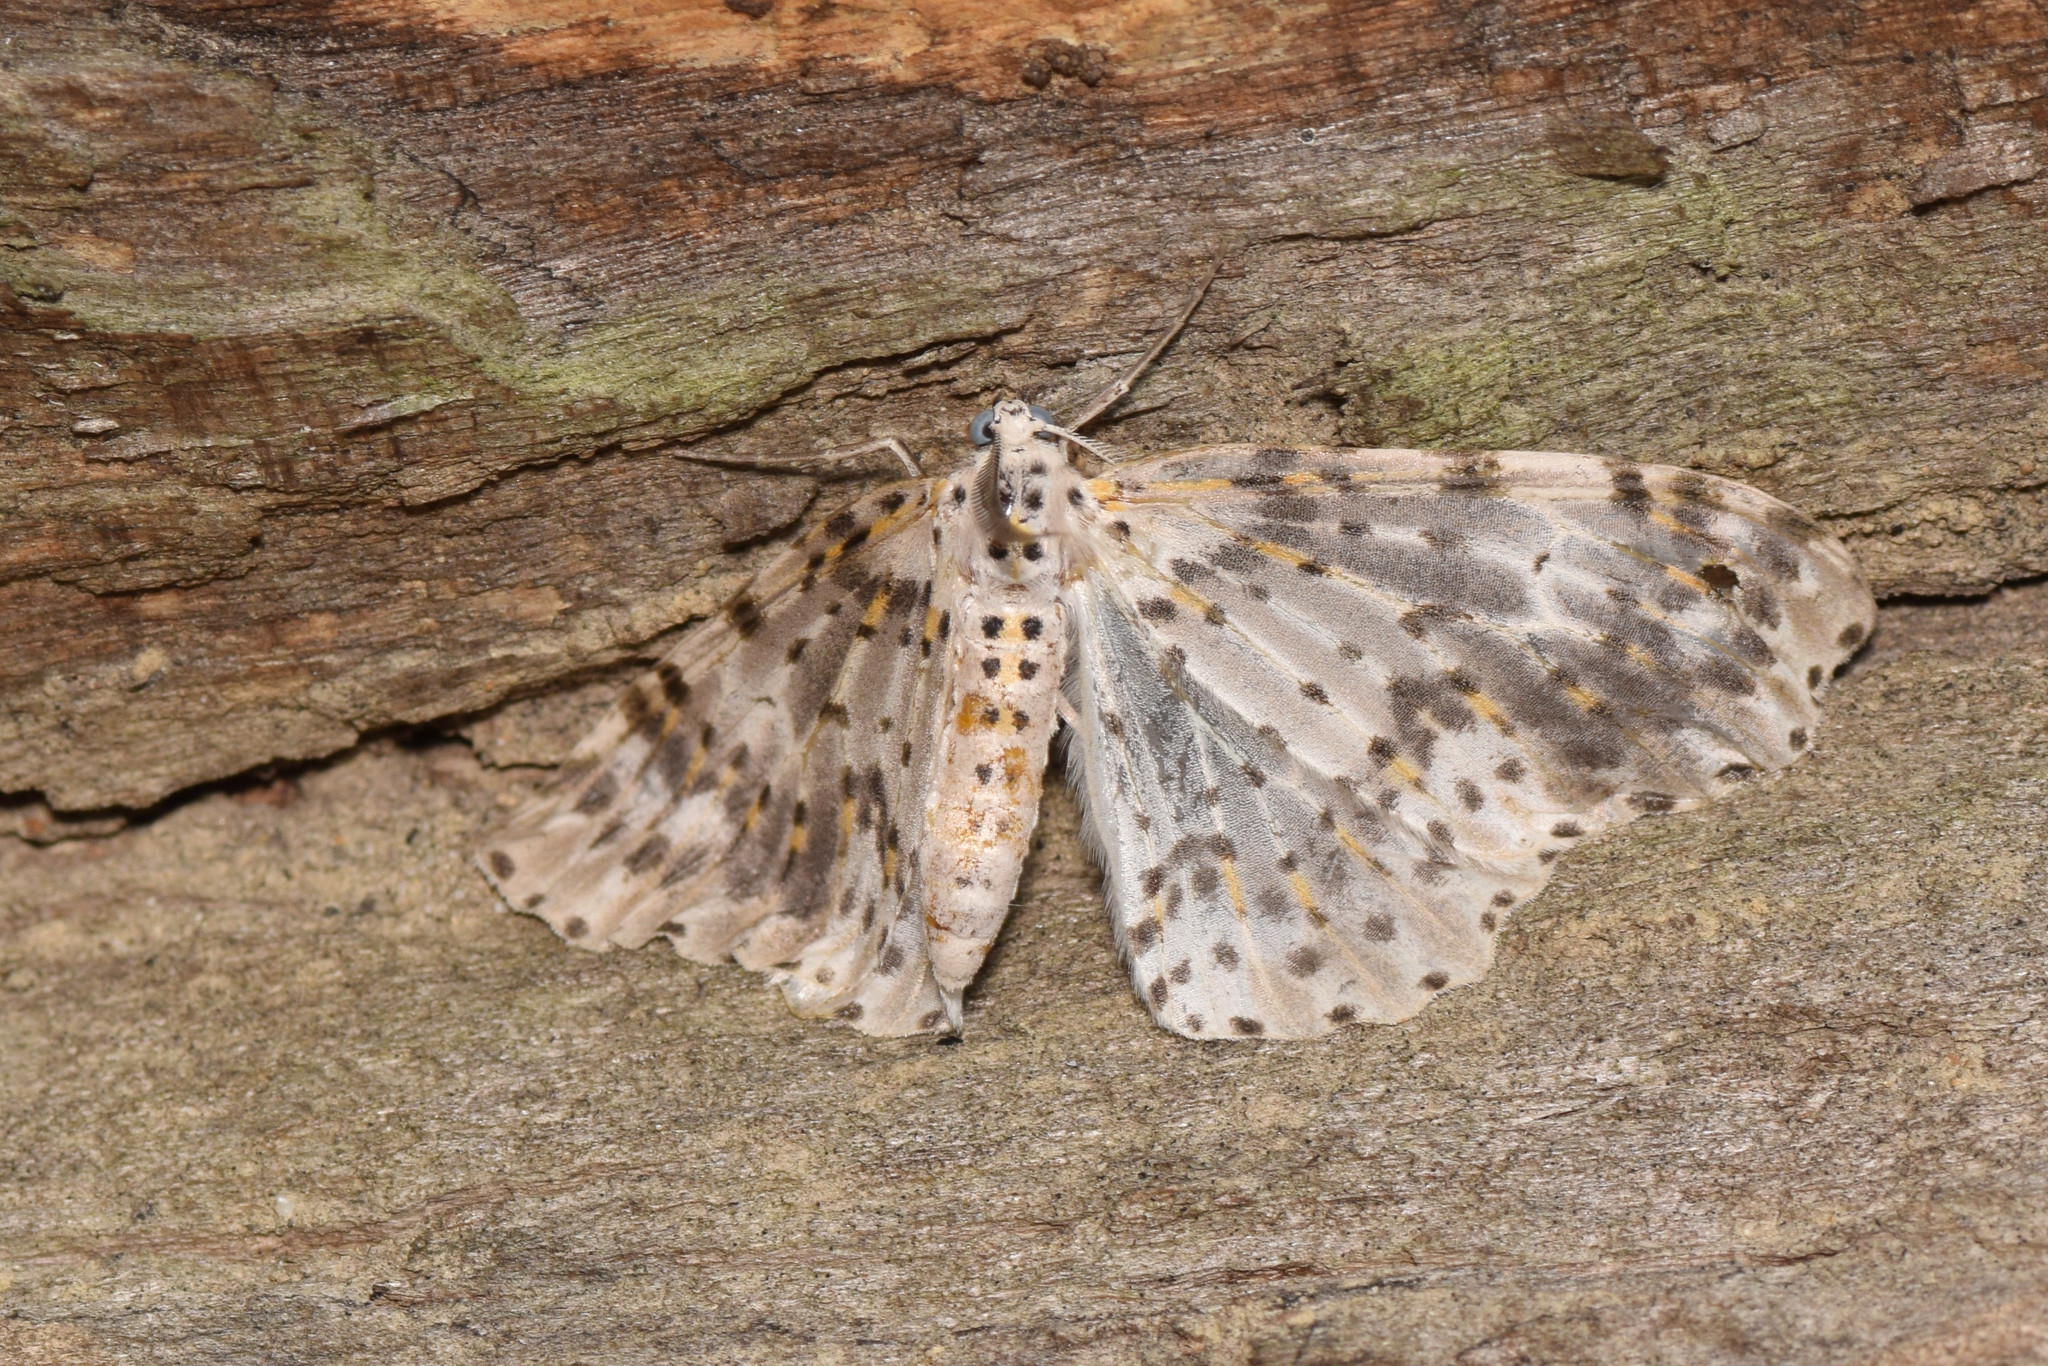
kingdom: Animalia
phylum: Arthropoda
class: Insecta
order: Lepidoptera
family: Geometridae
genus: Metapercnia
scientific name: Metapercnia ductaria
